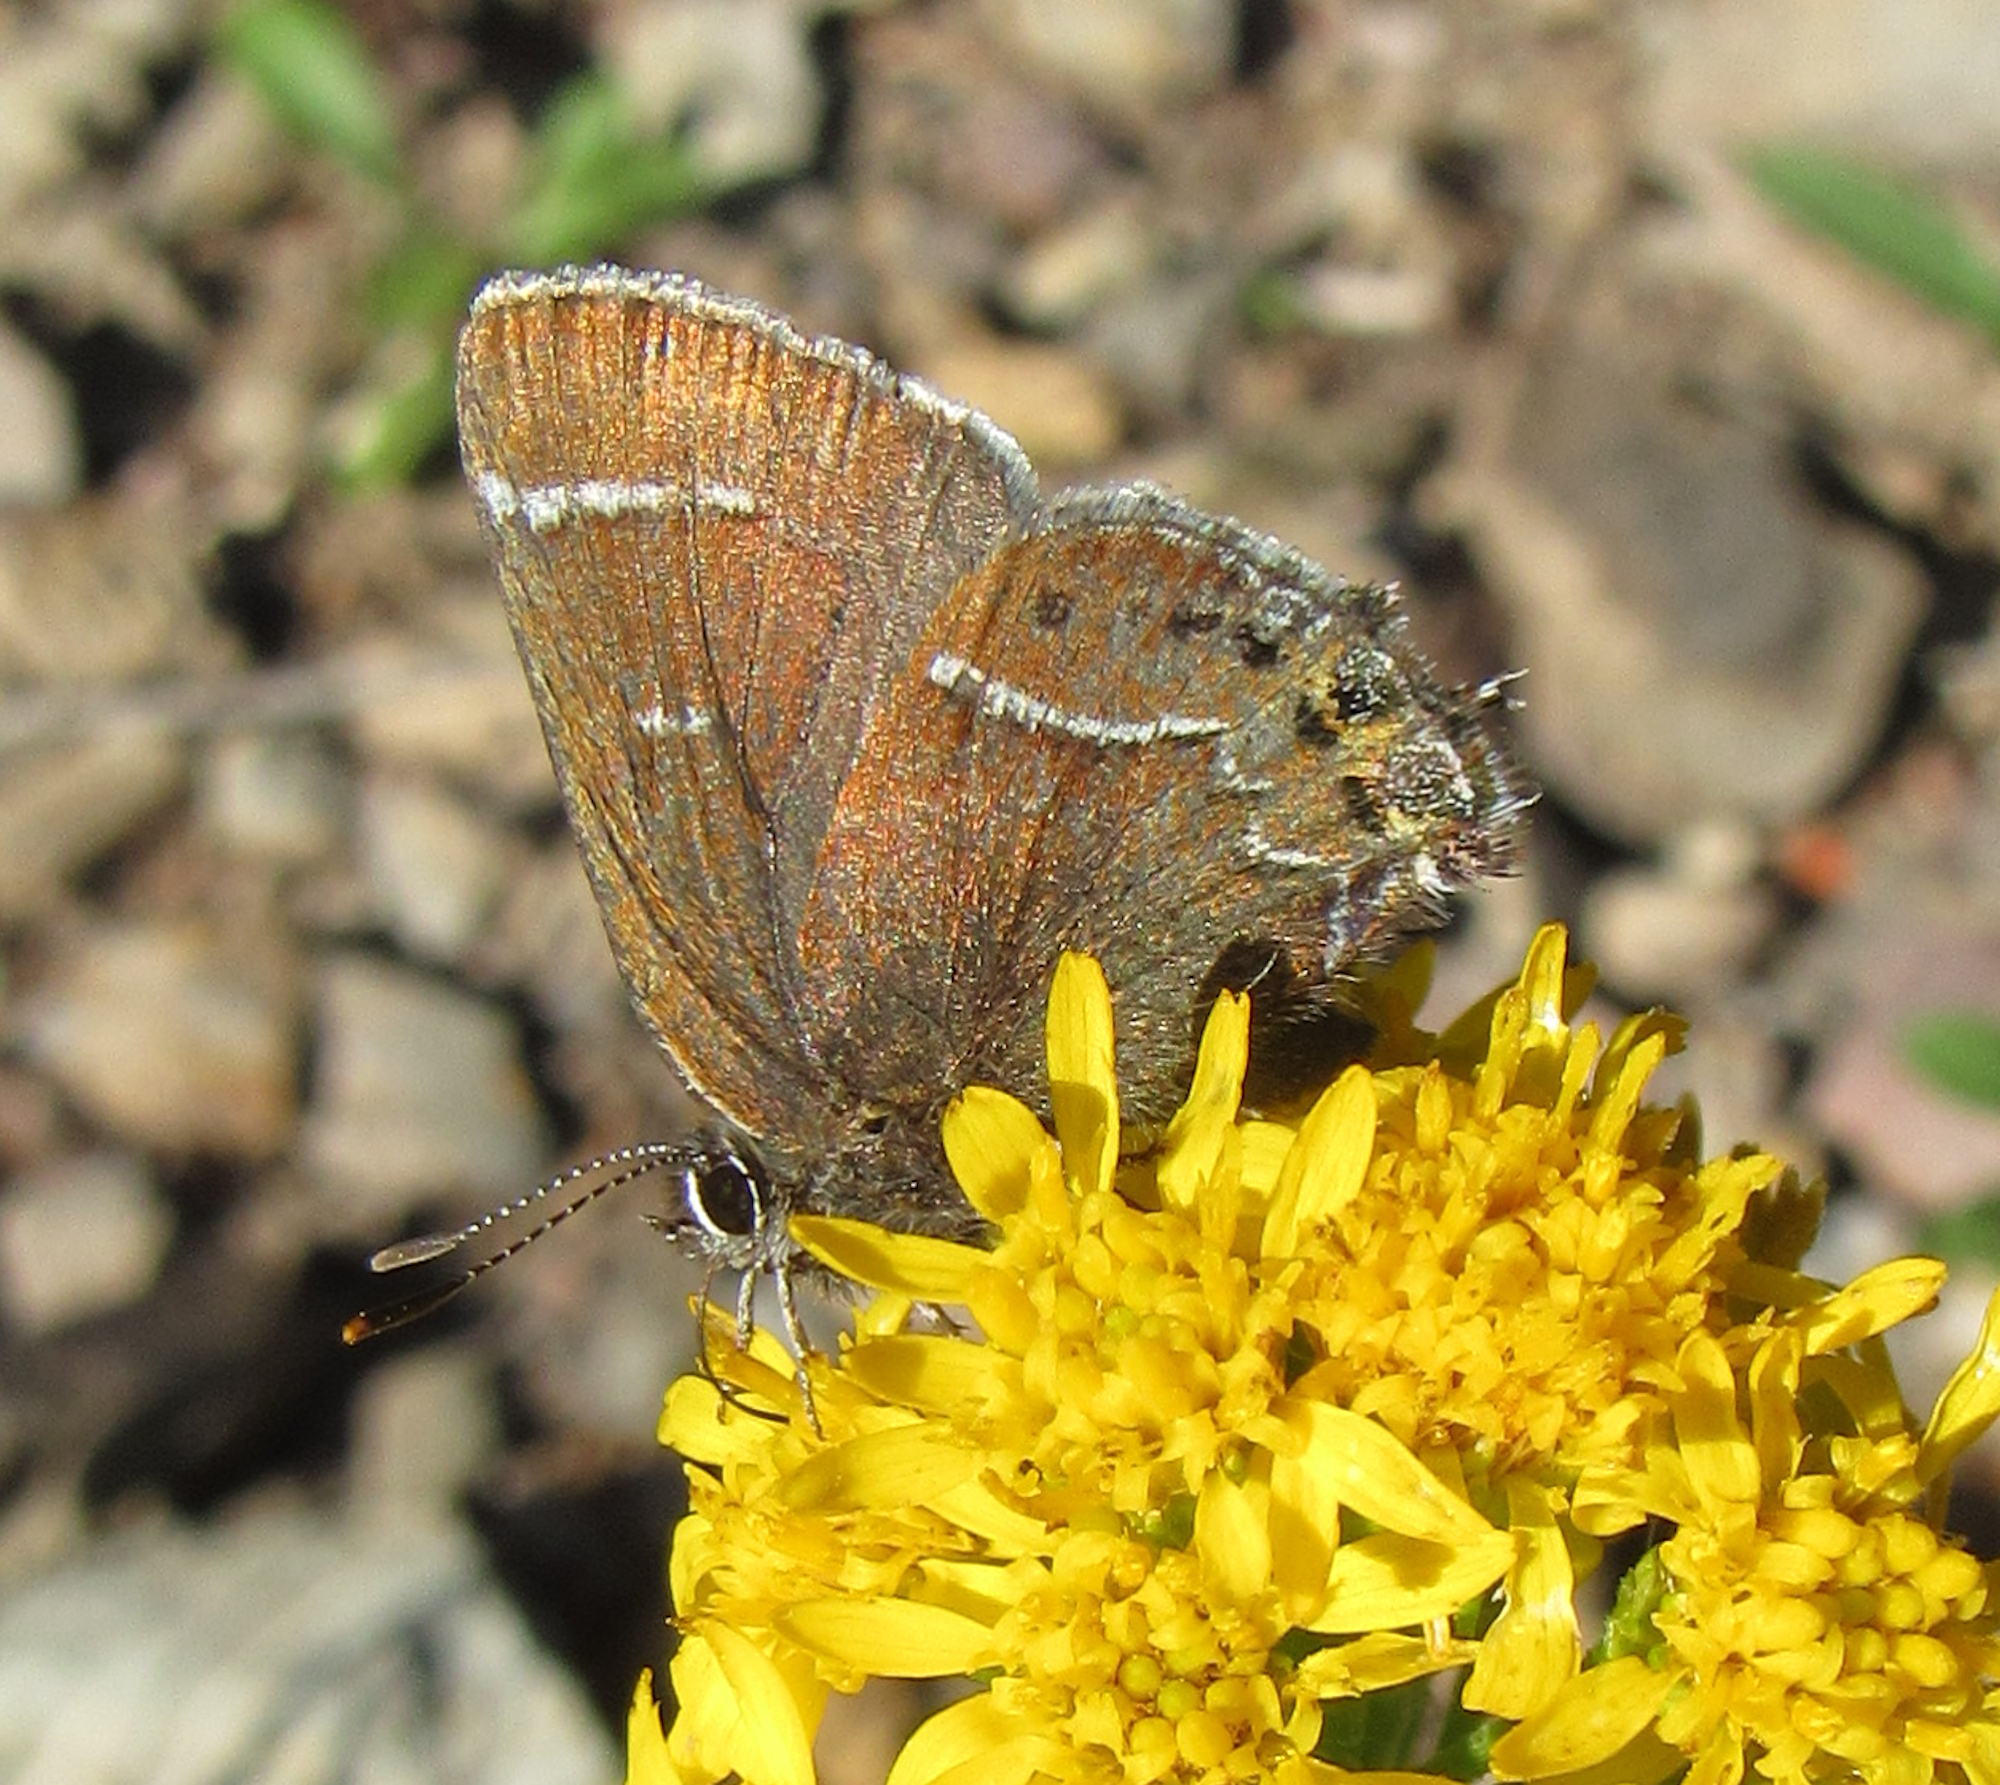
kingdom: Animalia
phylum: Arthropoda
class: Insecta
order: Lepidoptera
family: Lycaenidae
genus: Mitoura
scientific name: Mitoura spinetorum
